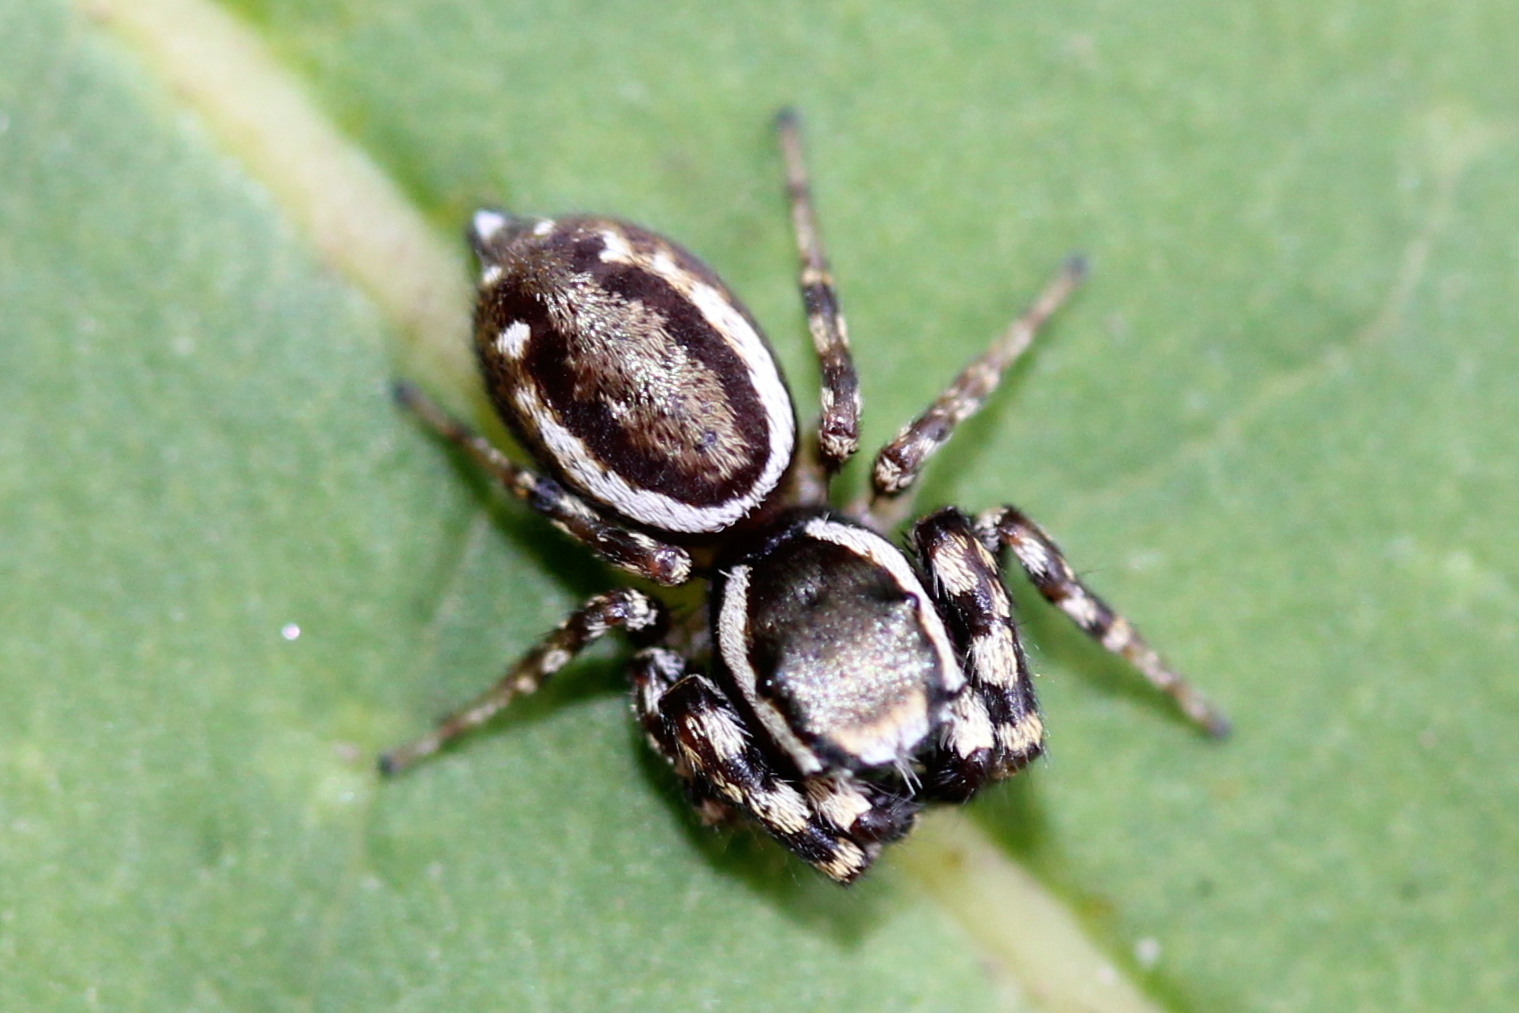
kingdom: Animalia
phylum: Arthropoda
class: Arachnida
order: Araneae
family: Salticidae
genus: Pelegrina
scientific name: Pelegrina proterva
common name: Common white-cheeked jumping spider
